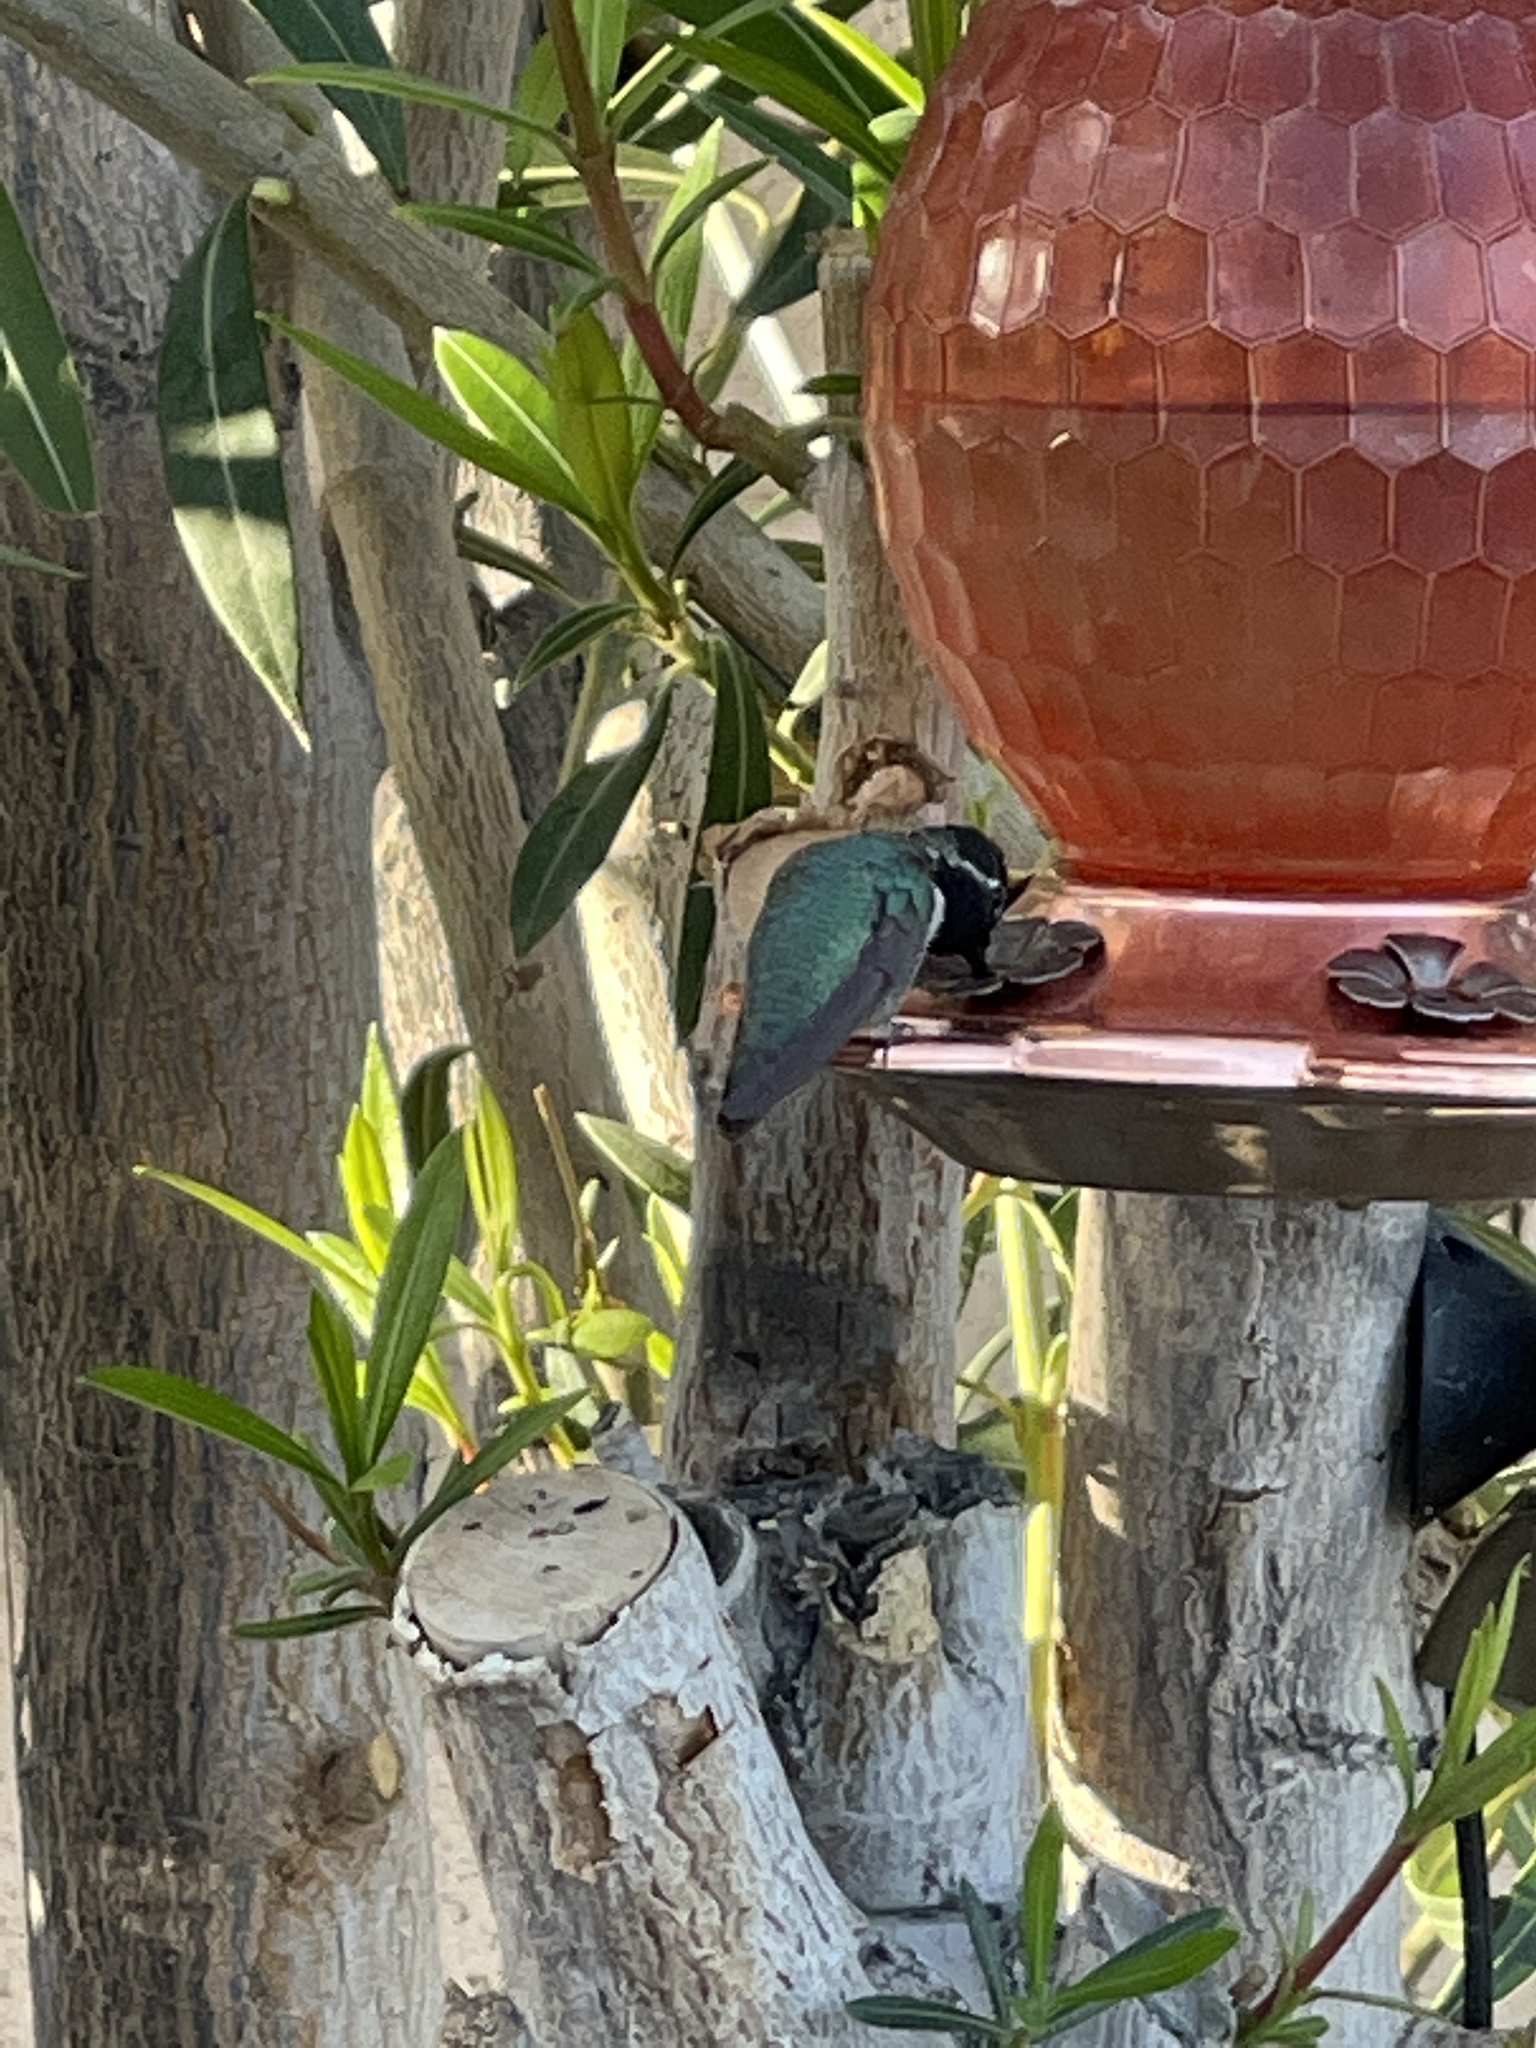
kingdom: Animalia
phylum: Chordata
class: Aves
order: Apodiformes
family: Trochilidae
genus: Calypte
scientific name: Calypte costae
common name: Costa's hummingbird
